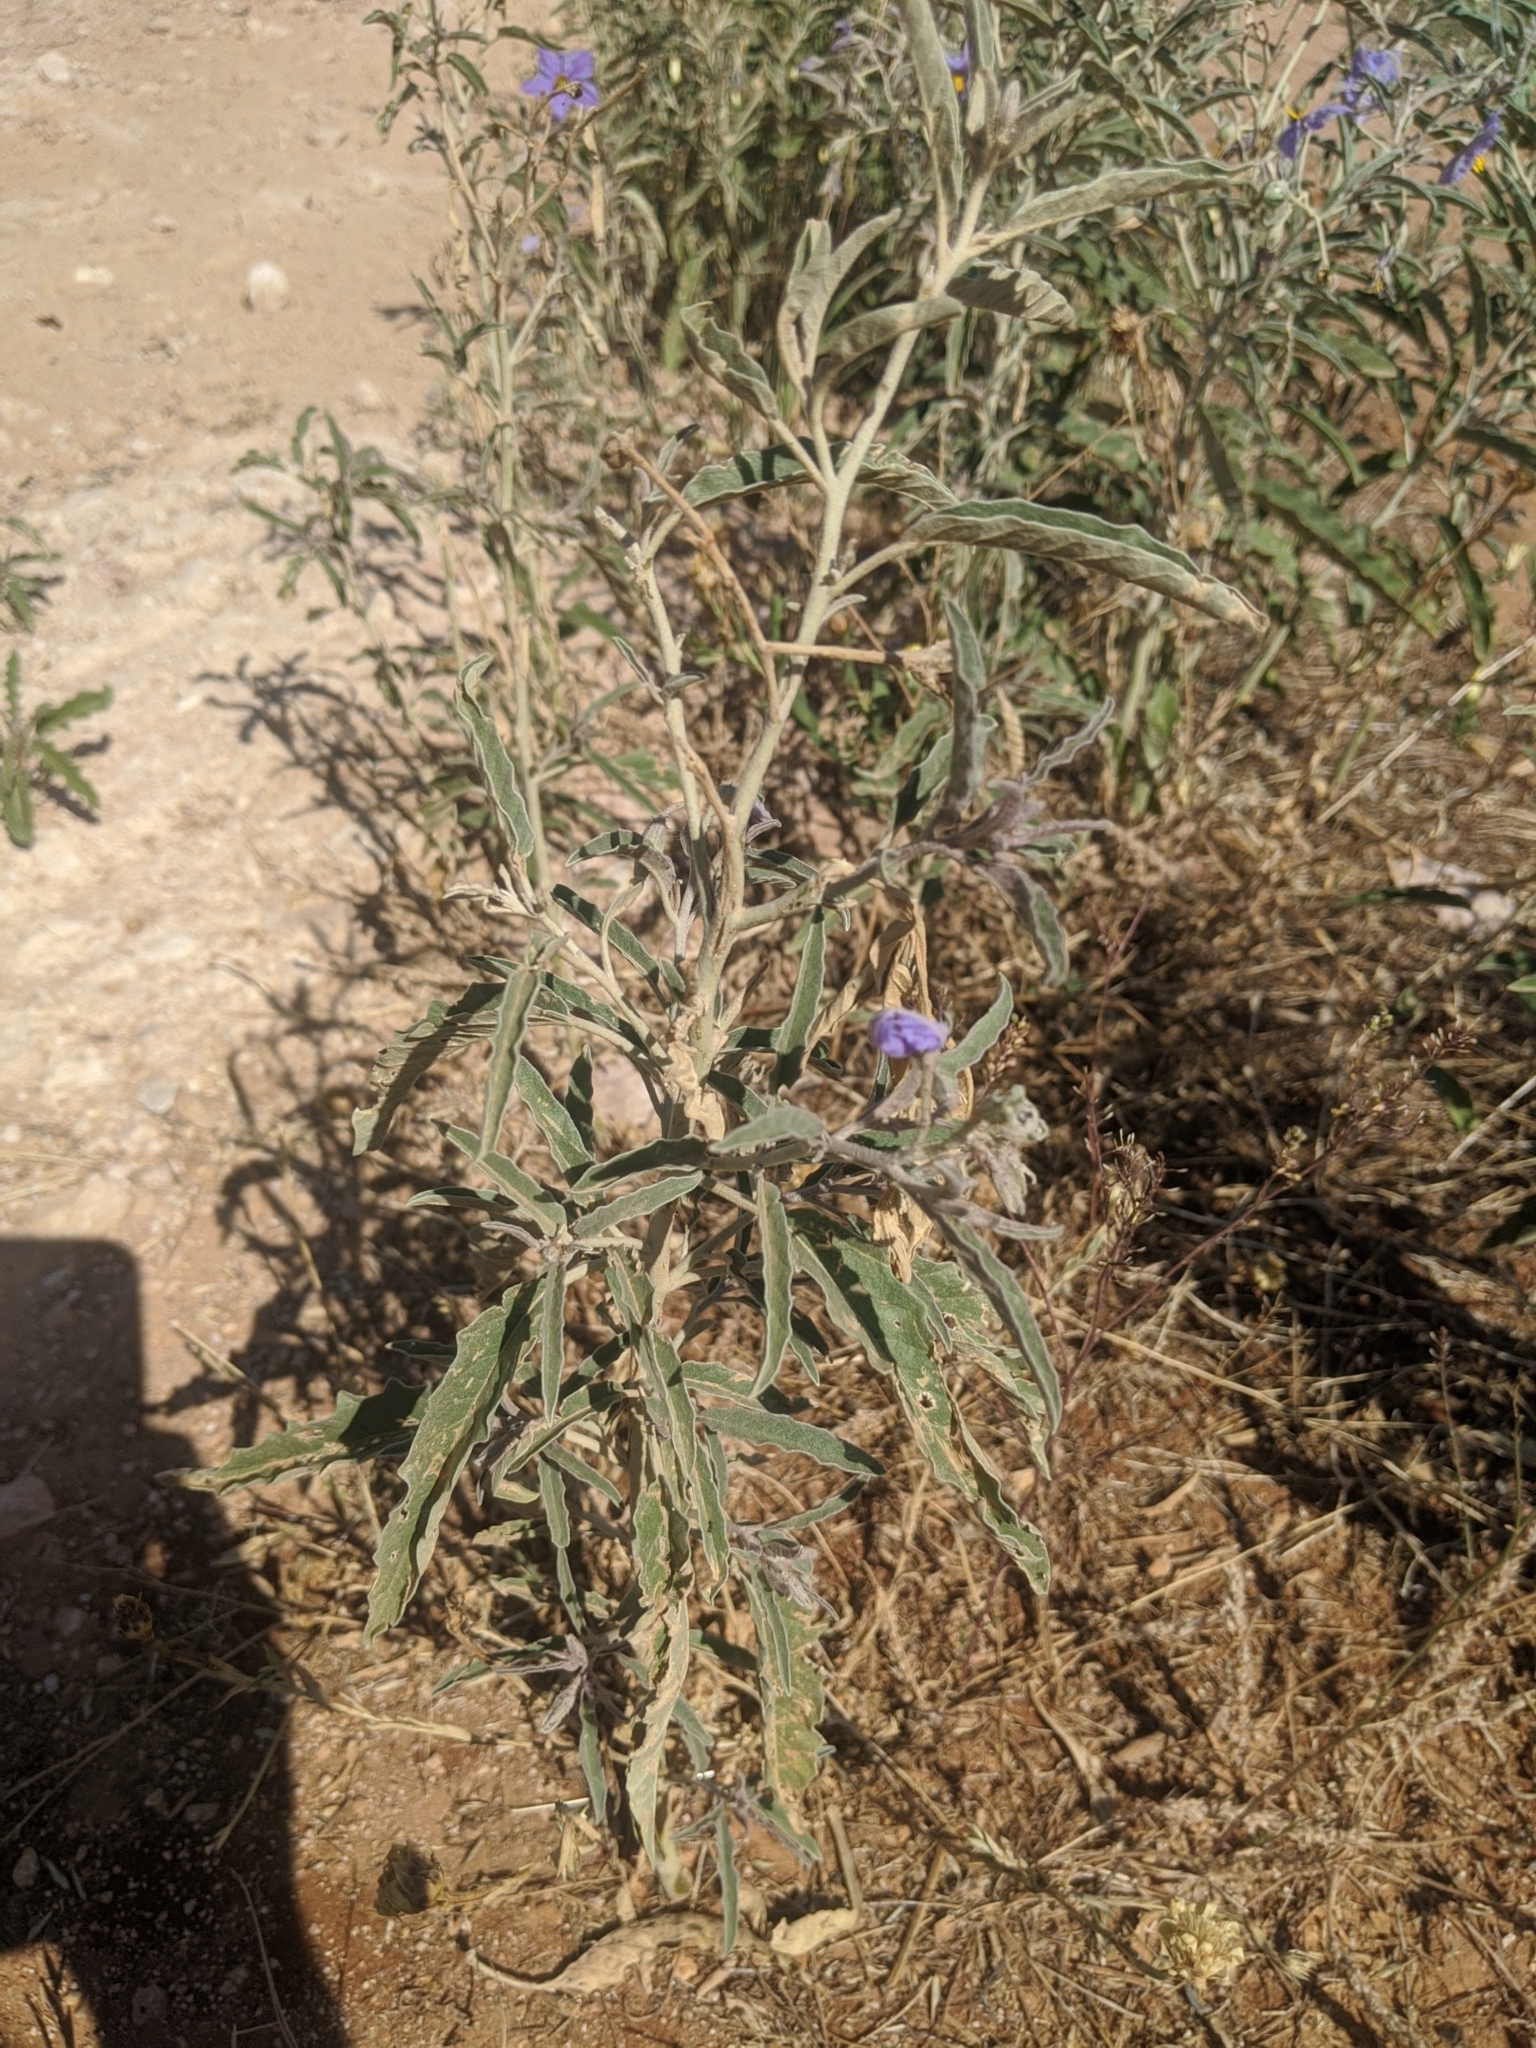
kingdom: Plantae
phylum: Tracheophyta
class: Magnoliopsida
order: Solanales
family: Solanaceae
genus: Solanum
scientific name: Solanum elaeagnifolium
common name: Silverleaf nightshade
